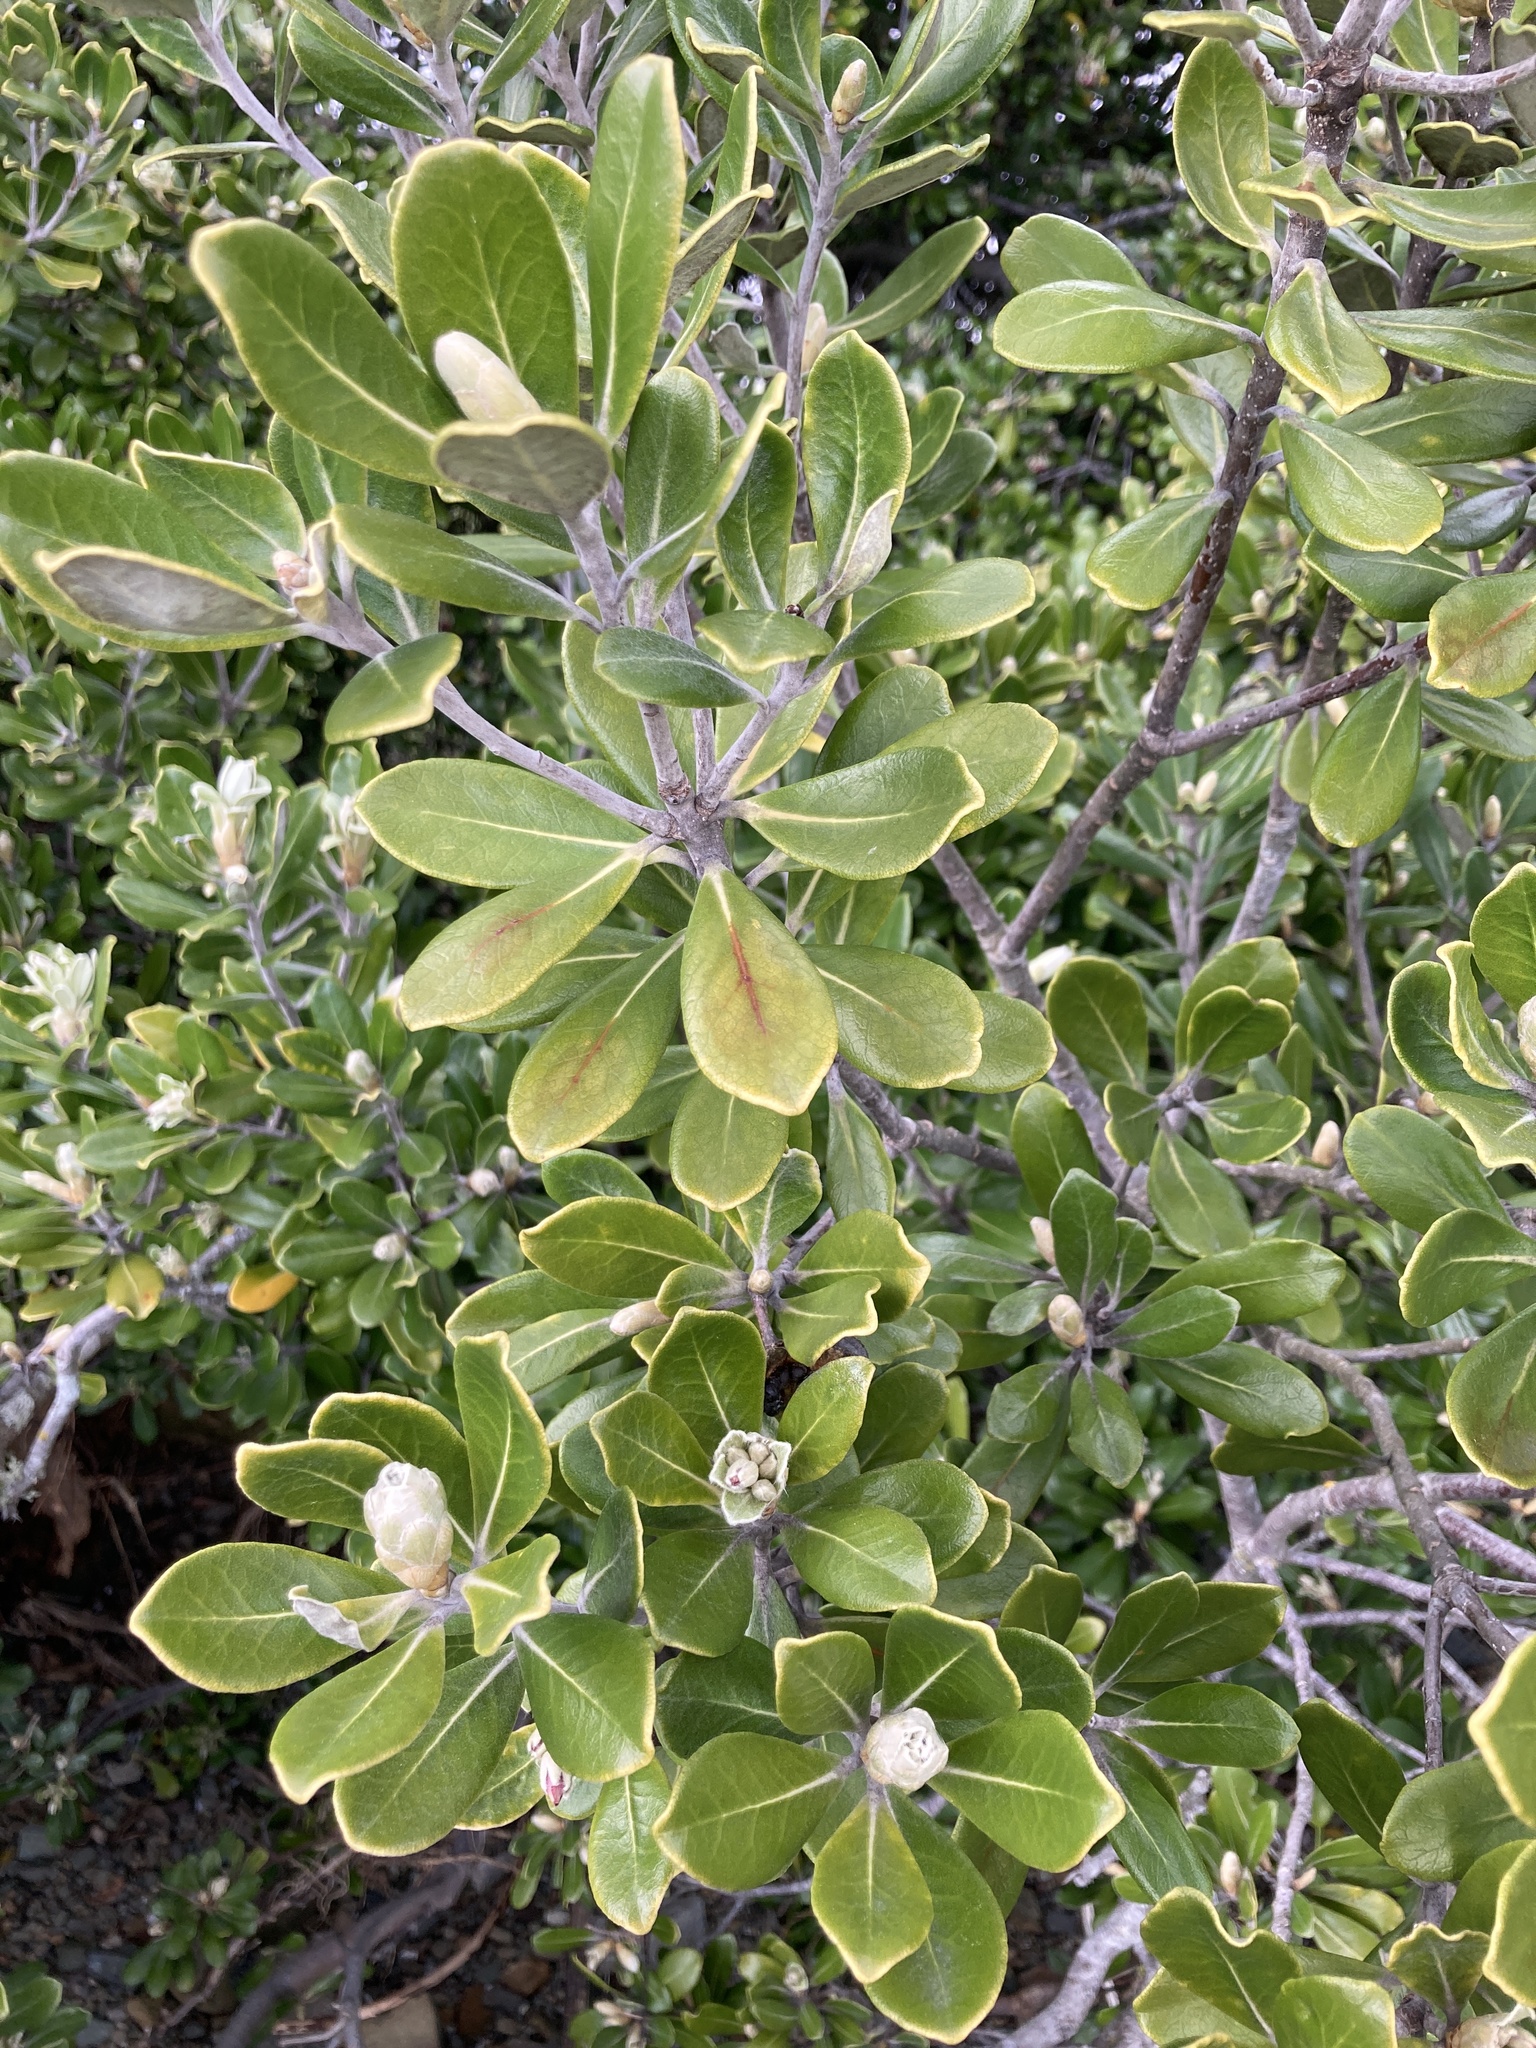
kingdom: Plantae
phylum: Tracheophyta
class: Magnoliopsida
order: Apiales
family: Pittosporaceae
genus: Pittosporum
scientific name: Pittosporum crassifolium
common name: Karo
